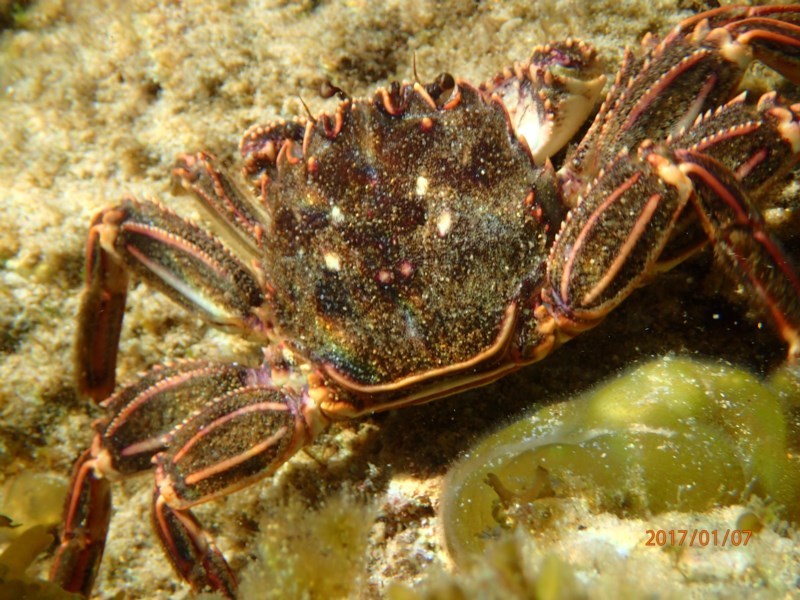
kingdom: Animalia
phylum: Arthropoda
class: Malacostraca
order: Decapoda
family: Plagusiidae
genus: Guinusia
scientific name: Guinusia chabrus
